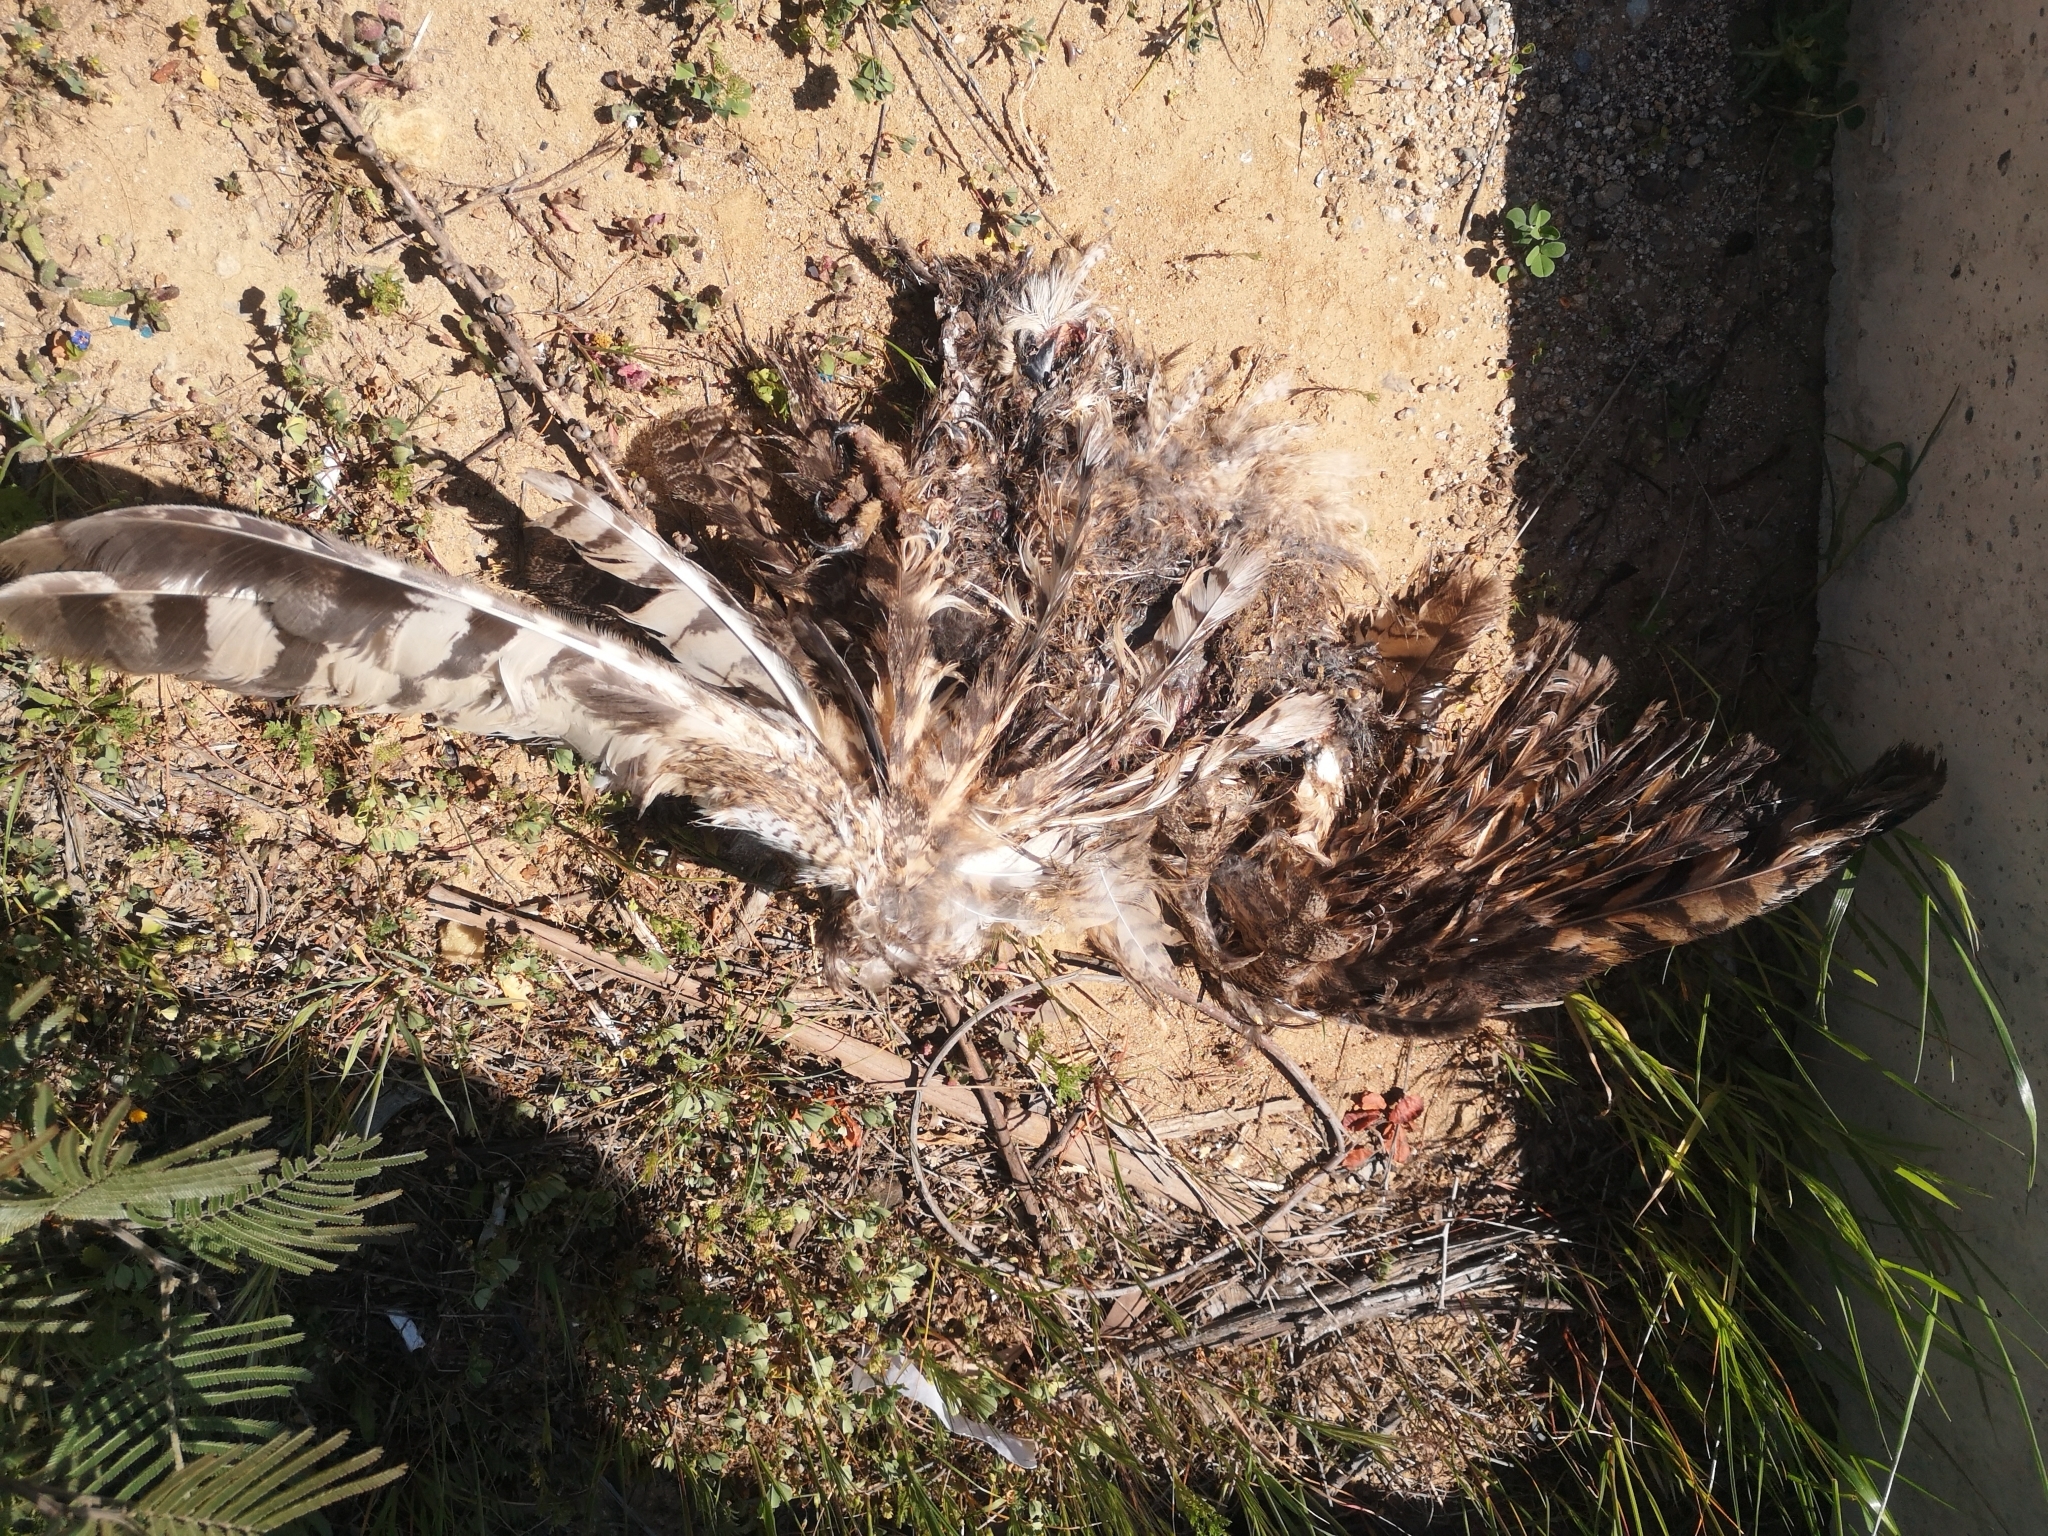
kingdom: Animalia
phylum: Chordata
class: Aves
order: Strigiformes
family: Strigidae
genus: Bubo
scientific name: Bubo magellanicus
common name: Lesser horned owl
